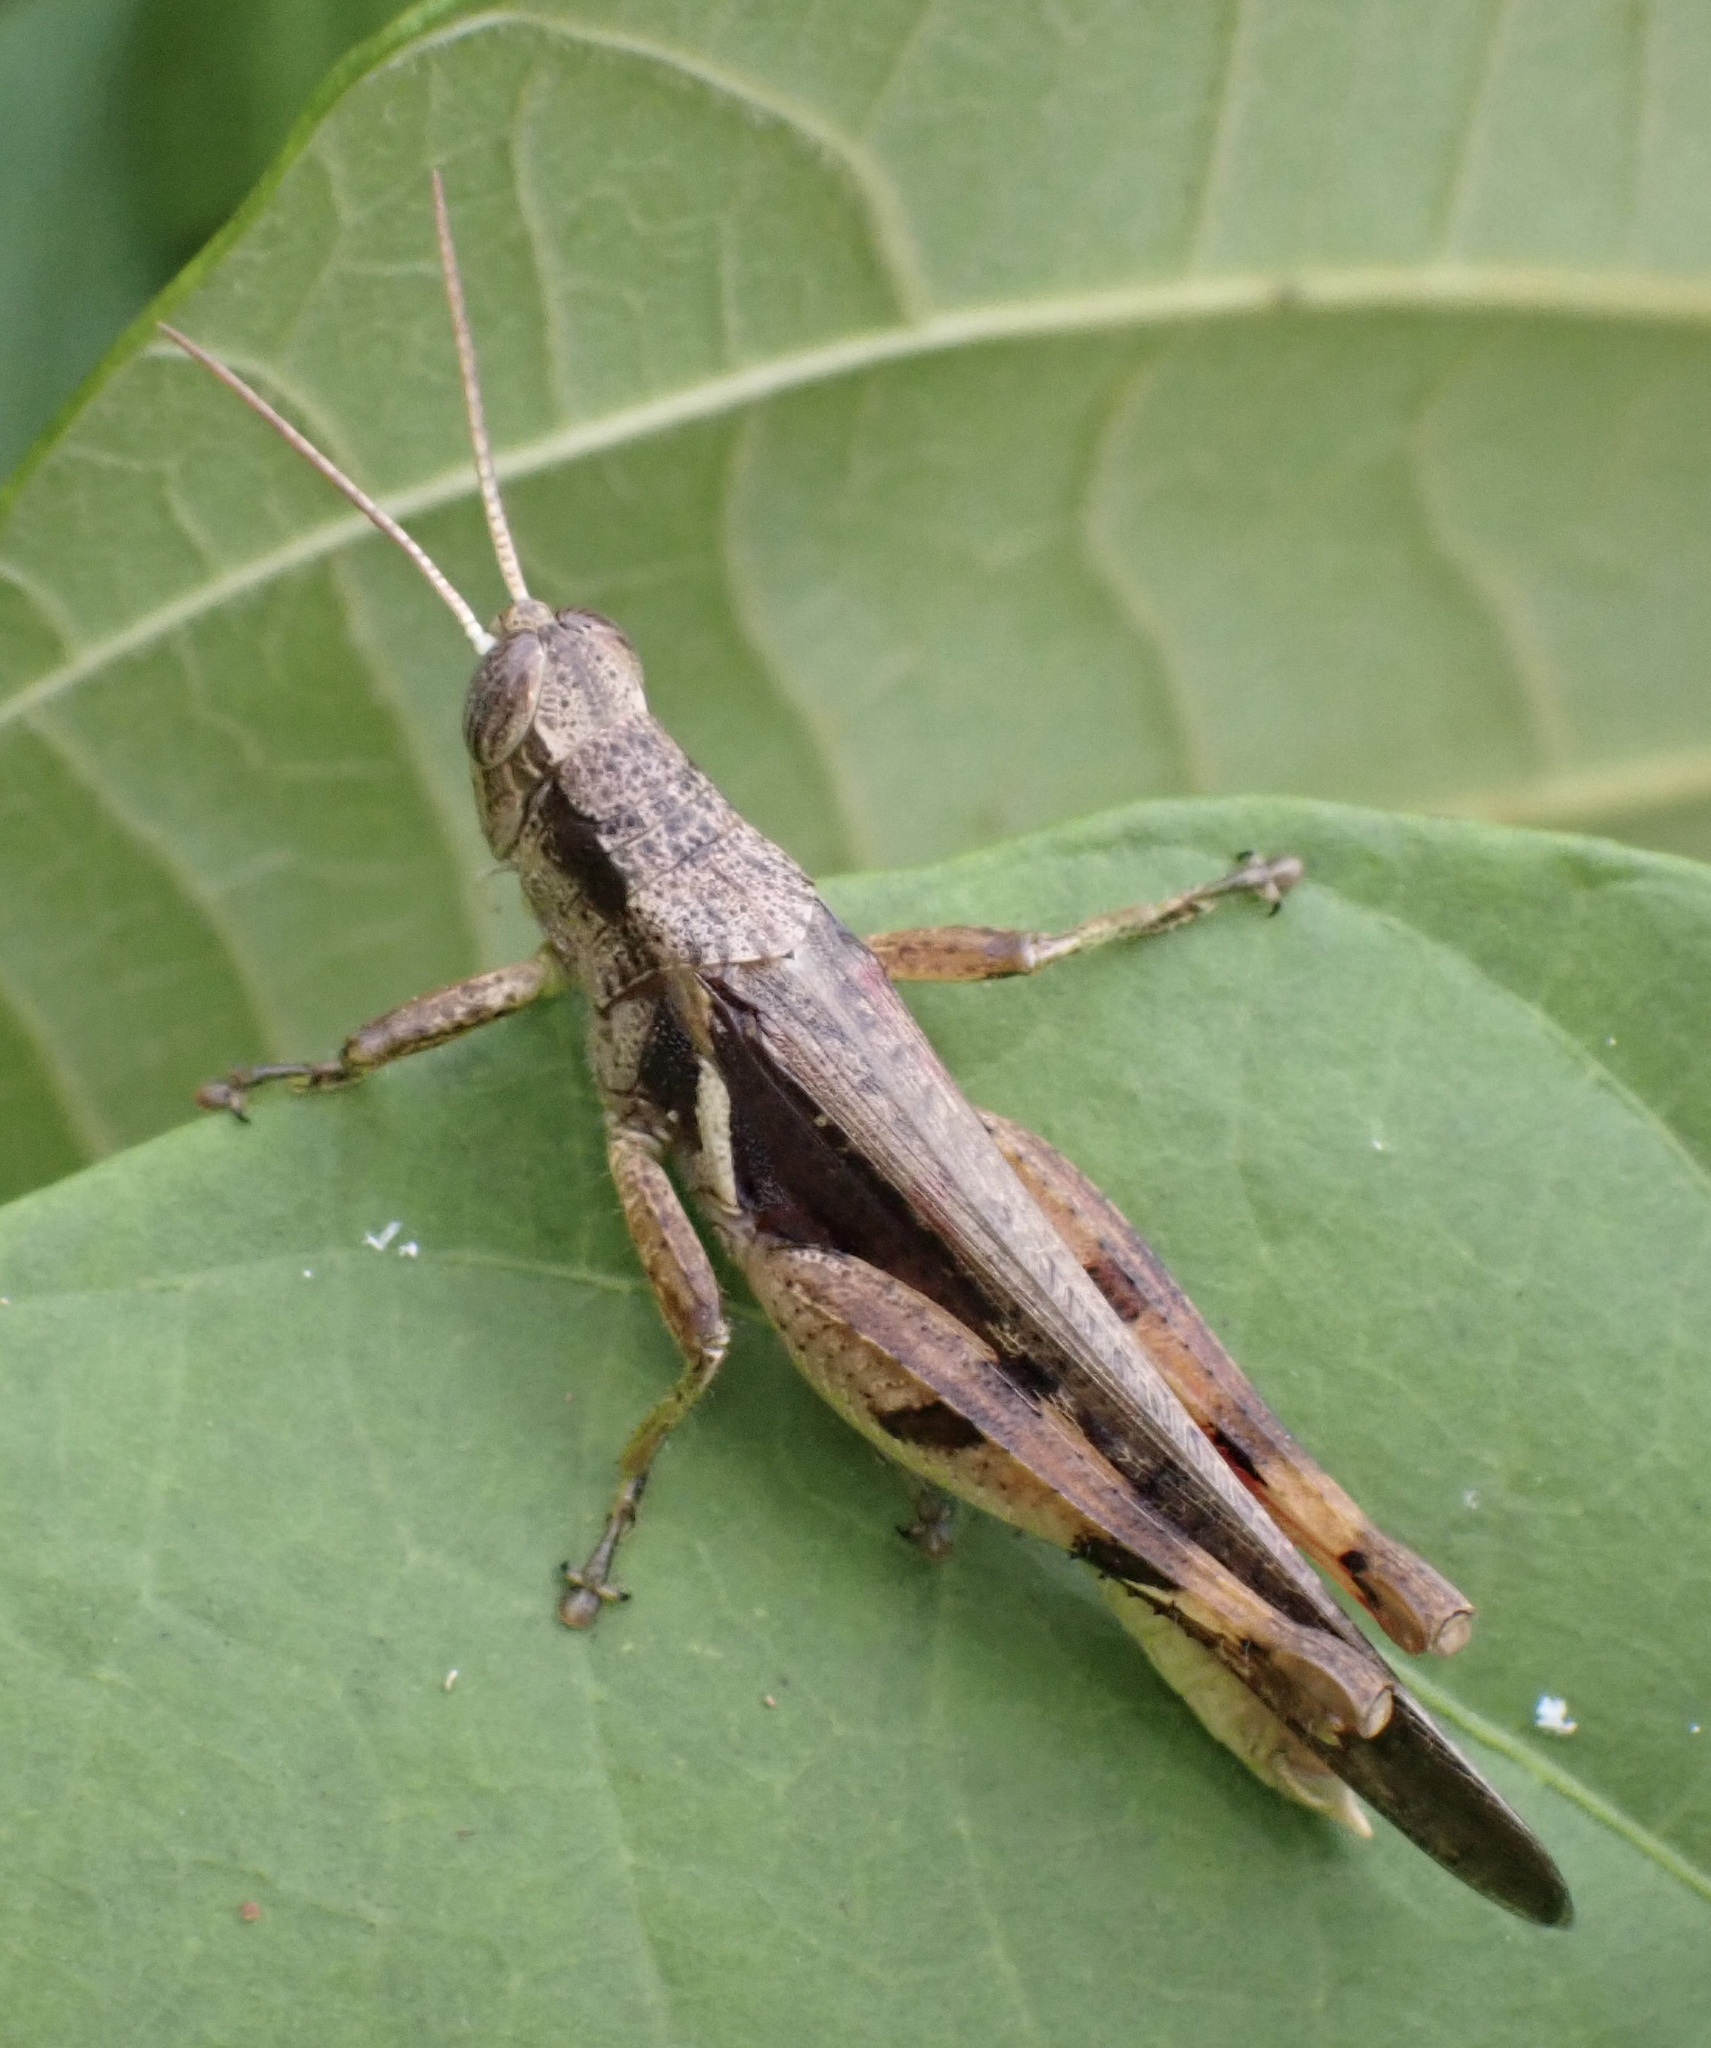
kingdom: Animalia
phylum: Arthropoda
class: Insecta
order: Orthoptera
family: Acrididae
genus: Stenocatantops
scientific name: Stenocatantops angustifrons
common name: Common tropical sharptail
